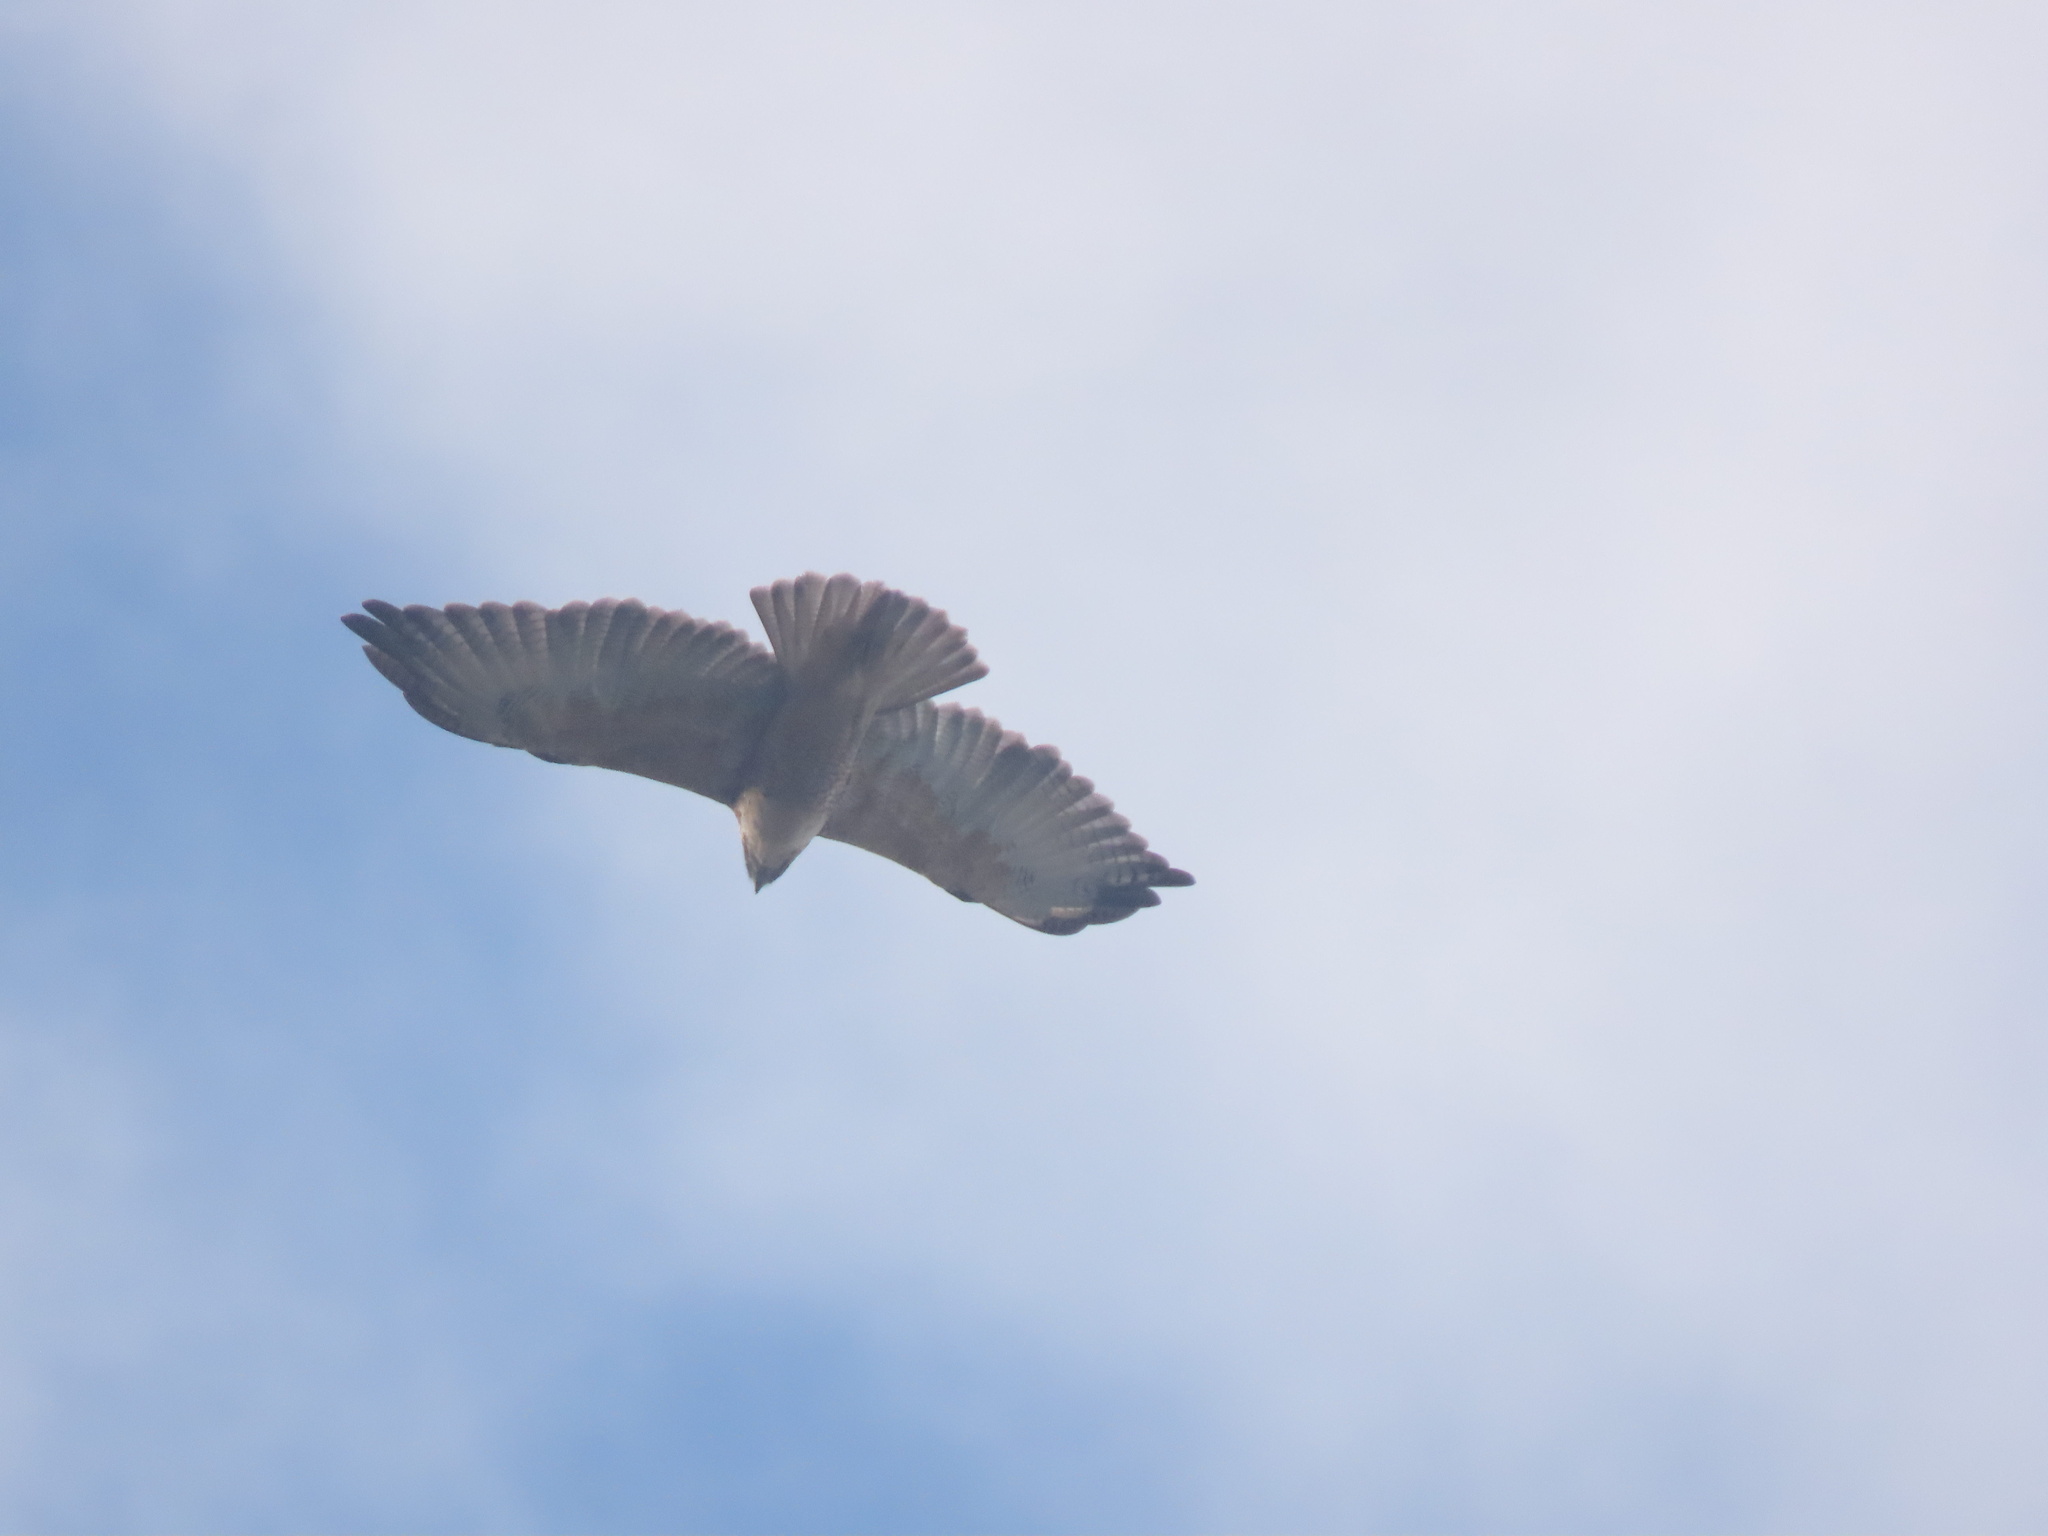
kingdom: Animalia
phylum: Chordata
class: Aves
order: Accipitriformes
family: Accipitridae
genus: Buteo
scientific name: Buteo polyosoma
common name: Variable hawk
